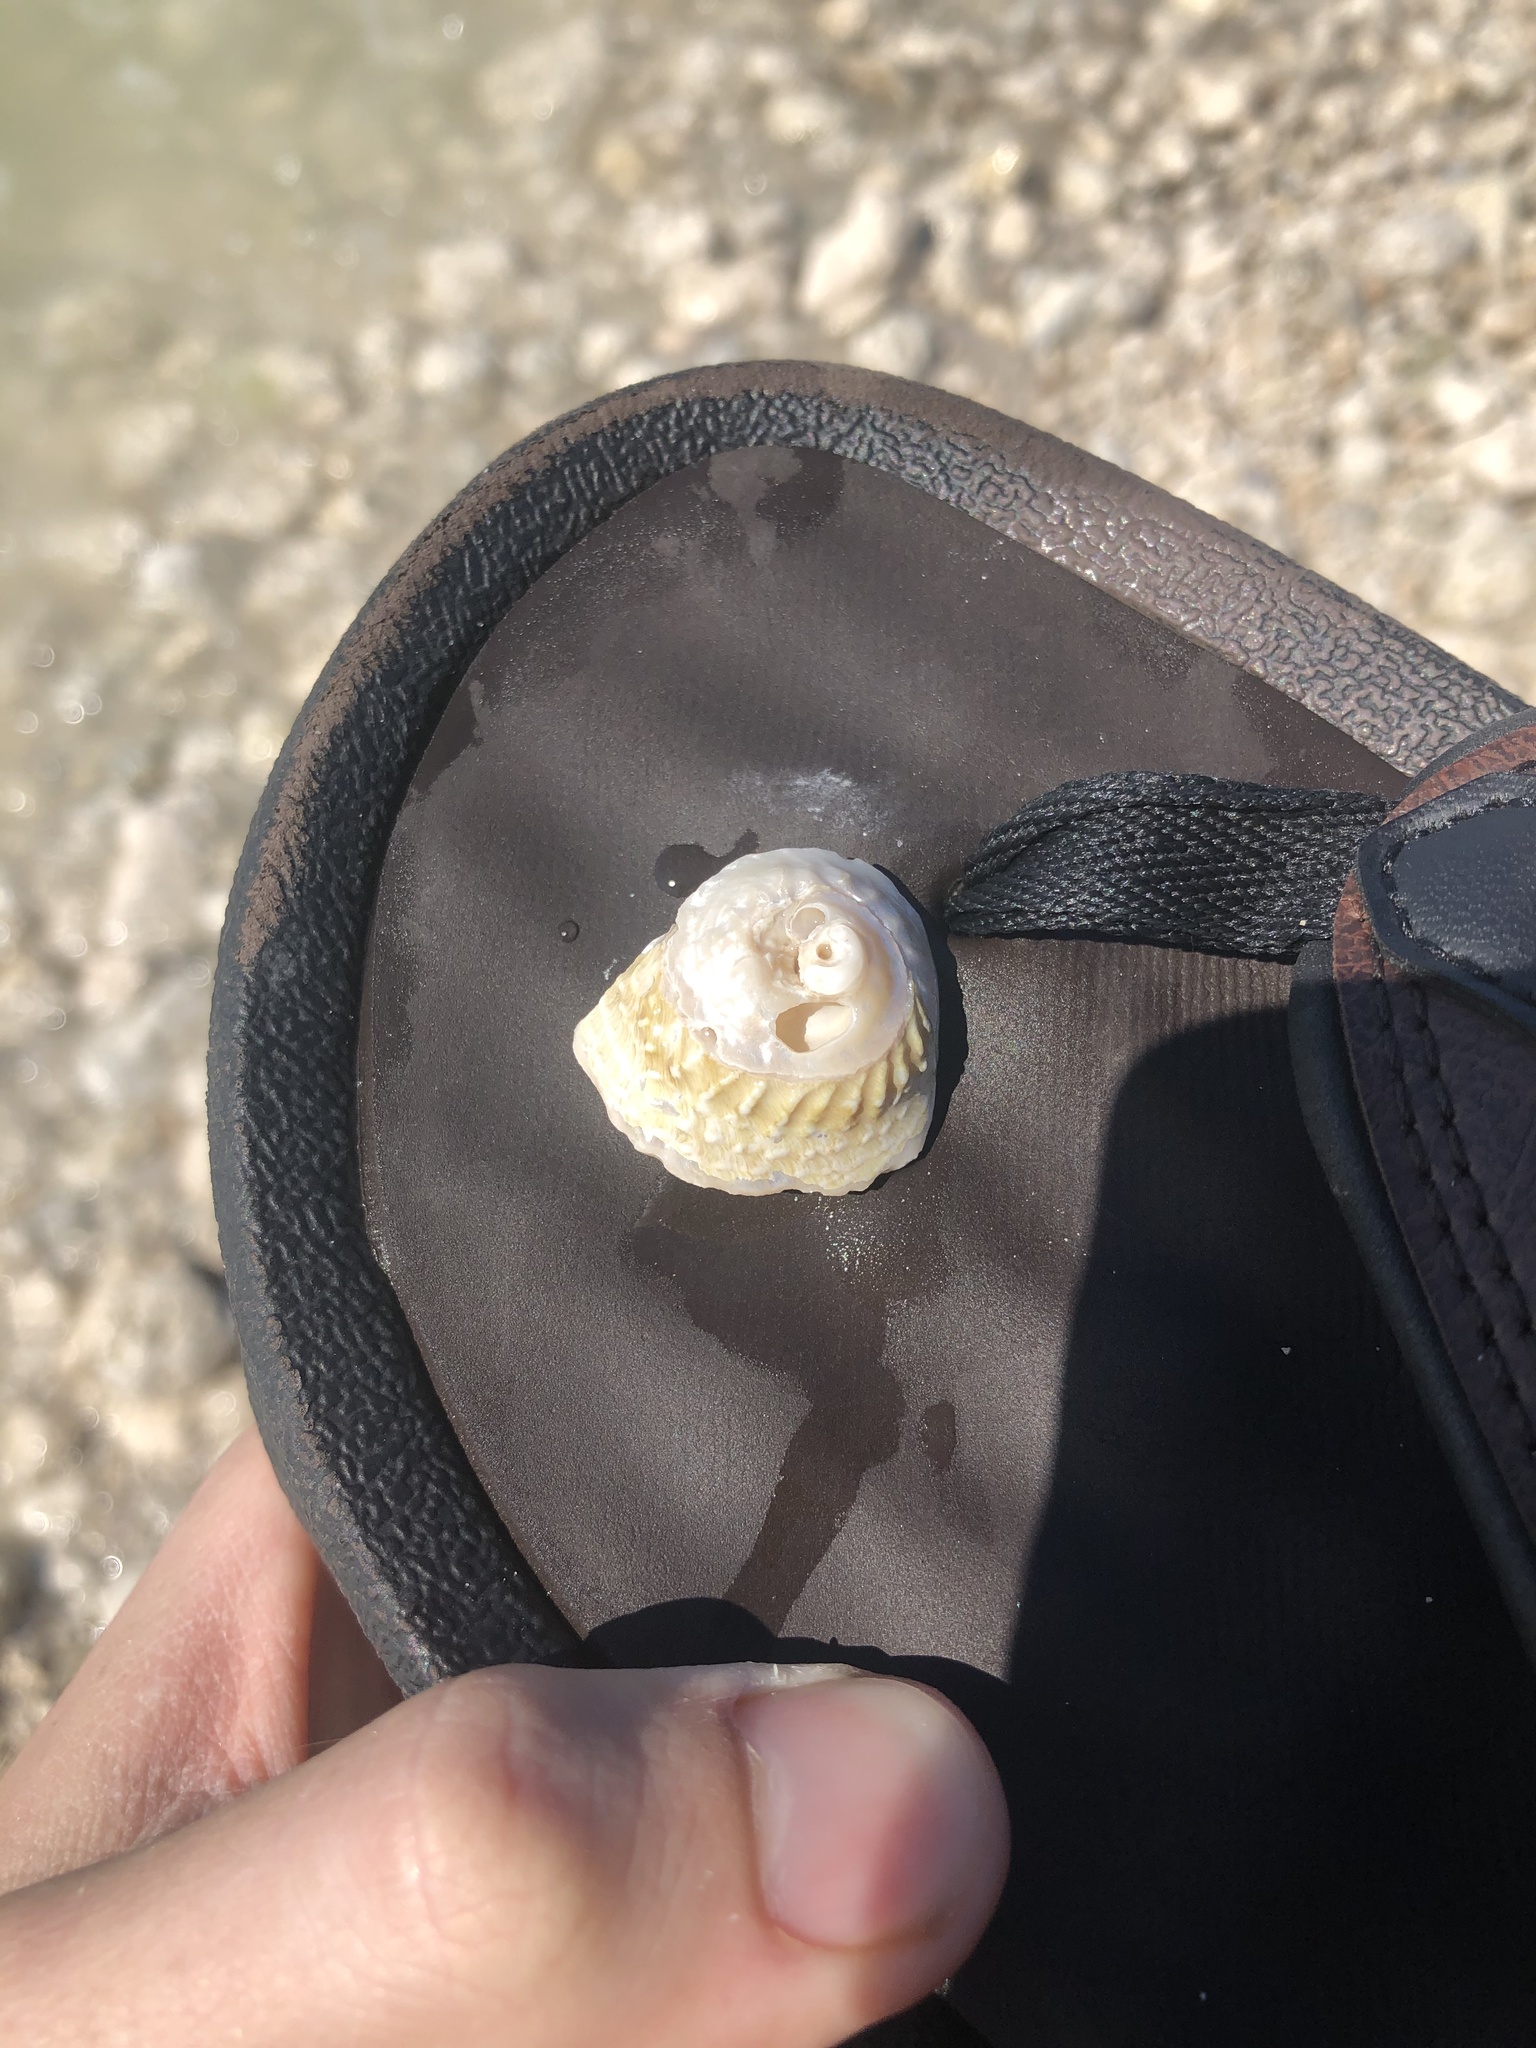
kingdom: Animalia
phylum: Mollusca
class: Gastropoda
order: Trochida
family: Turbinidae
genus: Lithopoma
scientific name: Lithopoma phoebium
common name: Long-spined starsnail
